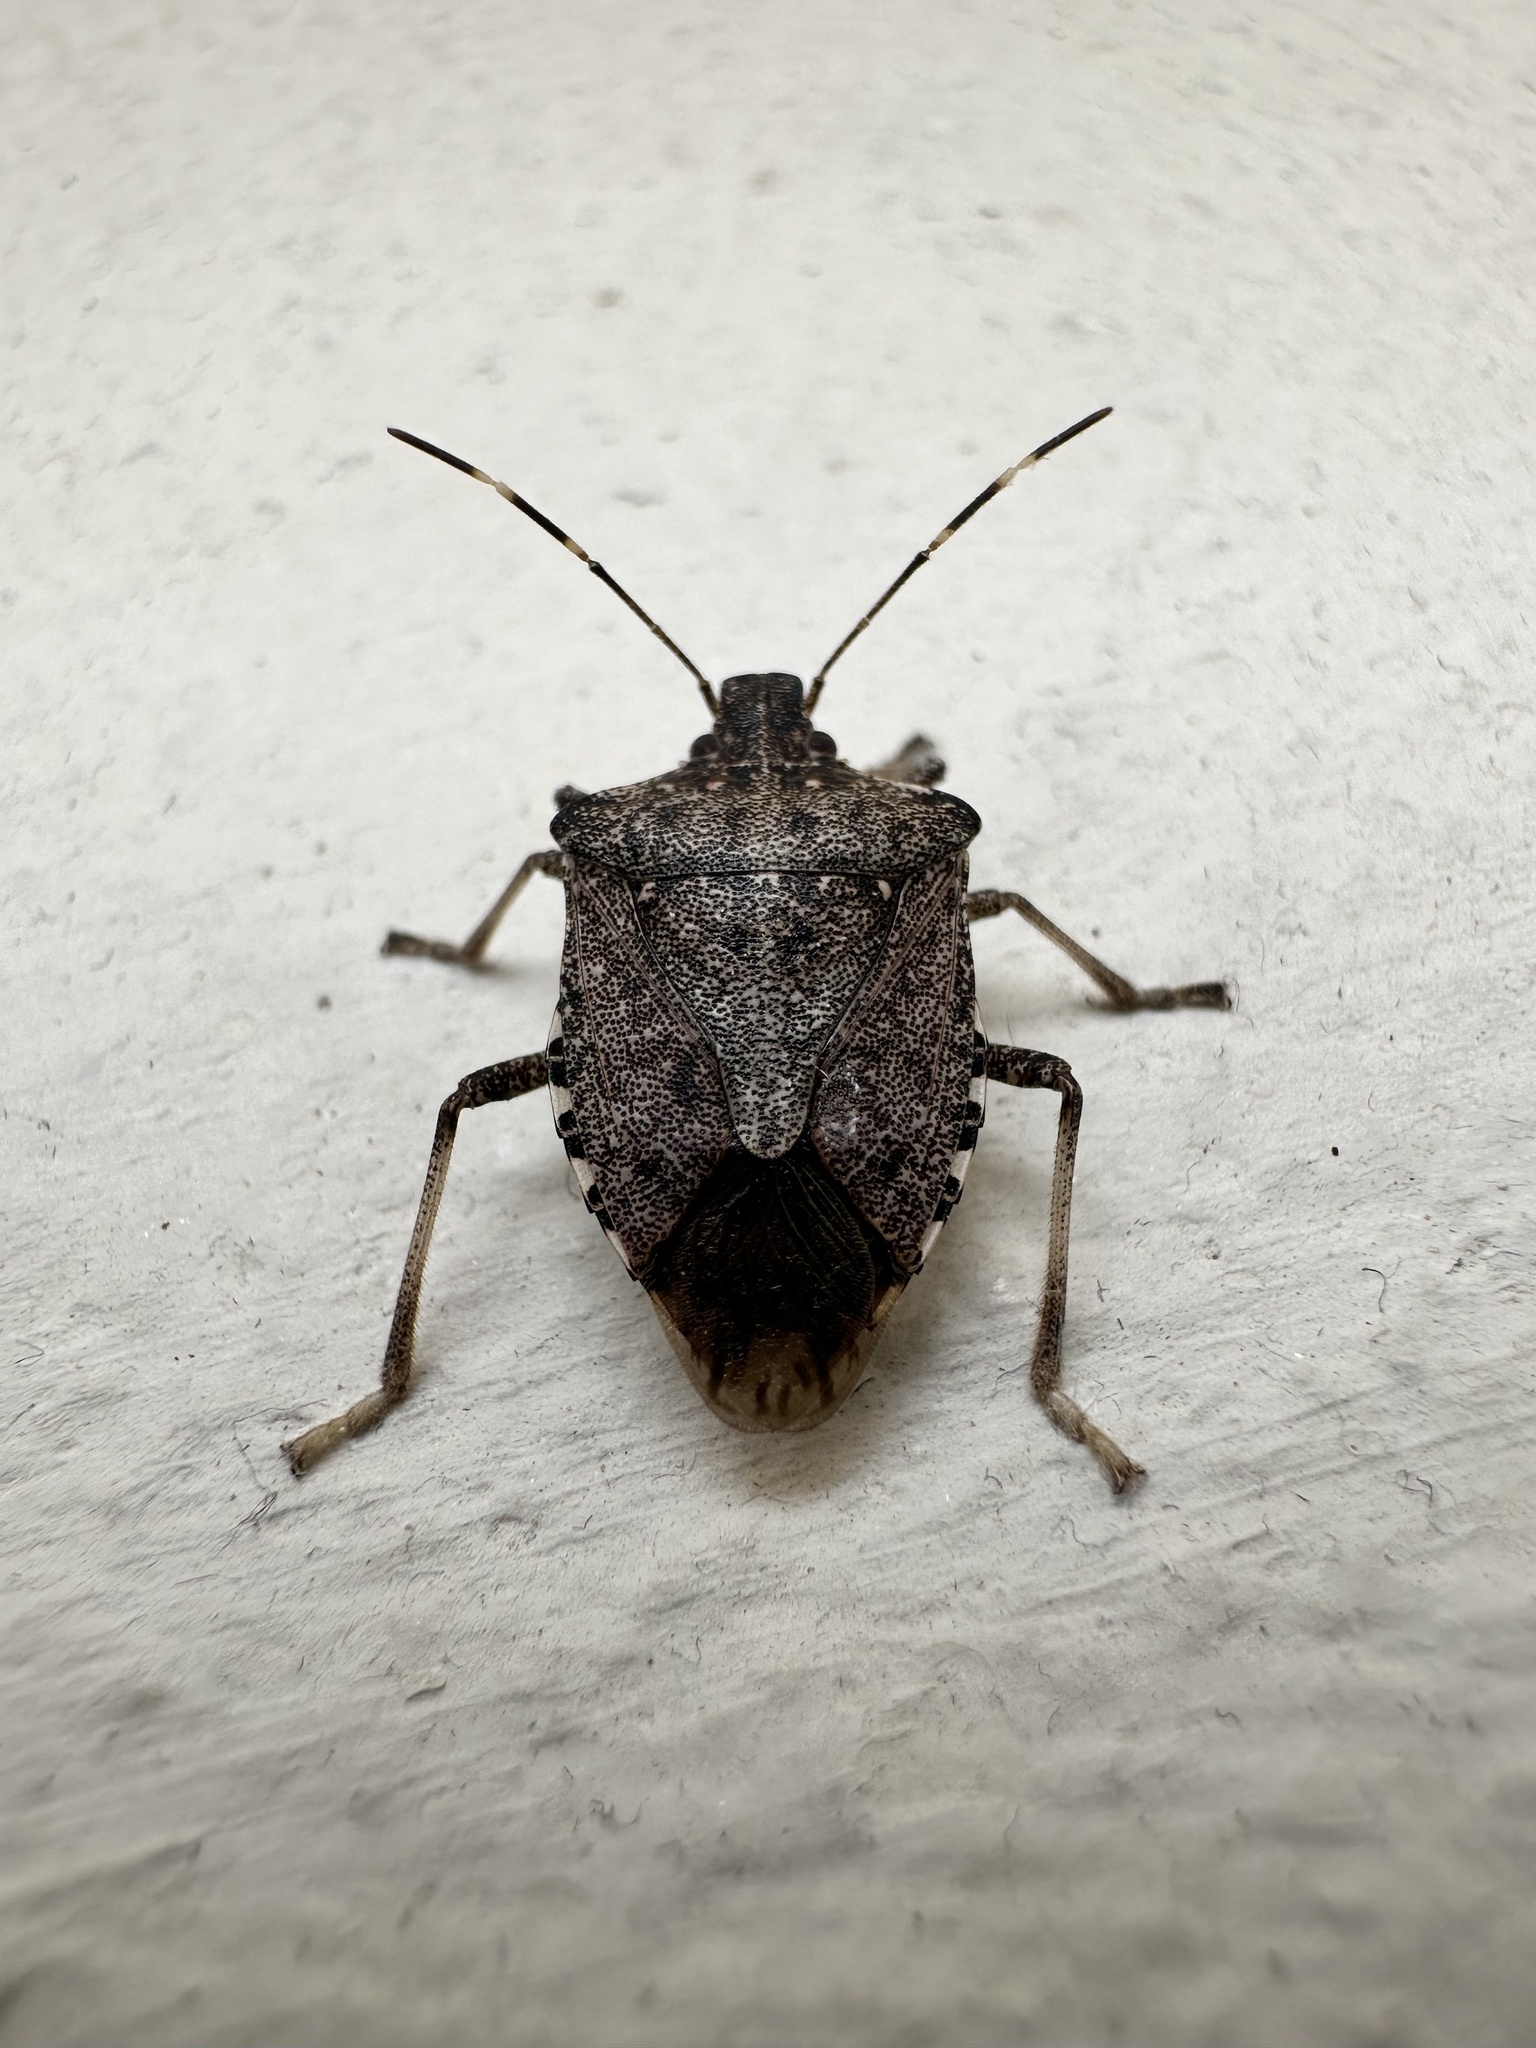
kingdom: Animalia
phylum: Arthropoda
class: Insecta
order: Hemiptera
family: Pentatomidae
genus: Halyomorpha
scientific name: Halyomorpha halys
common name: Brown marmorated stink bug
